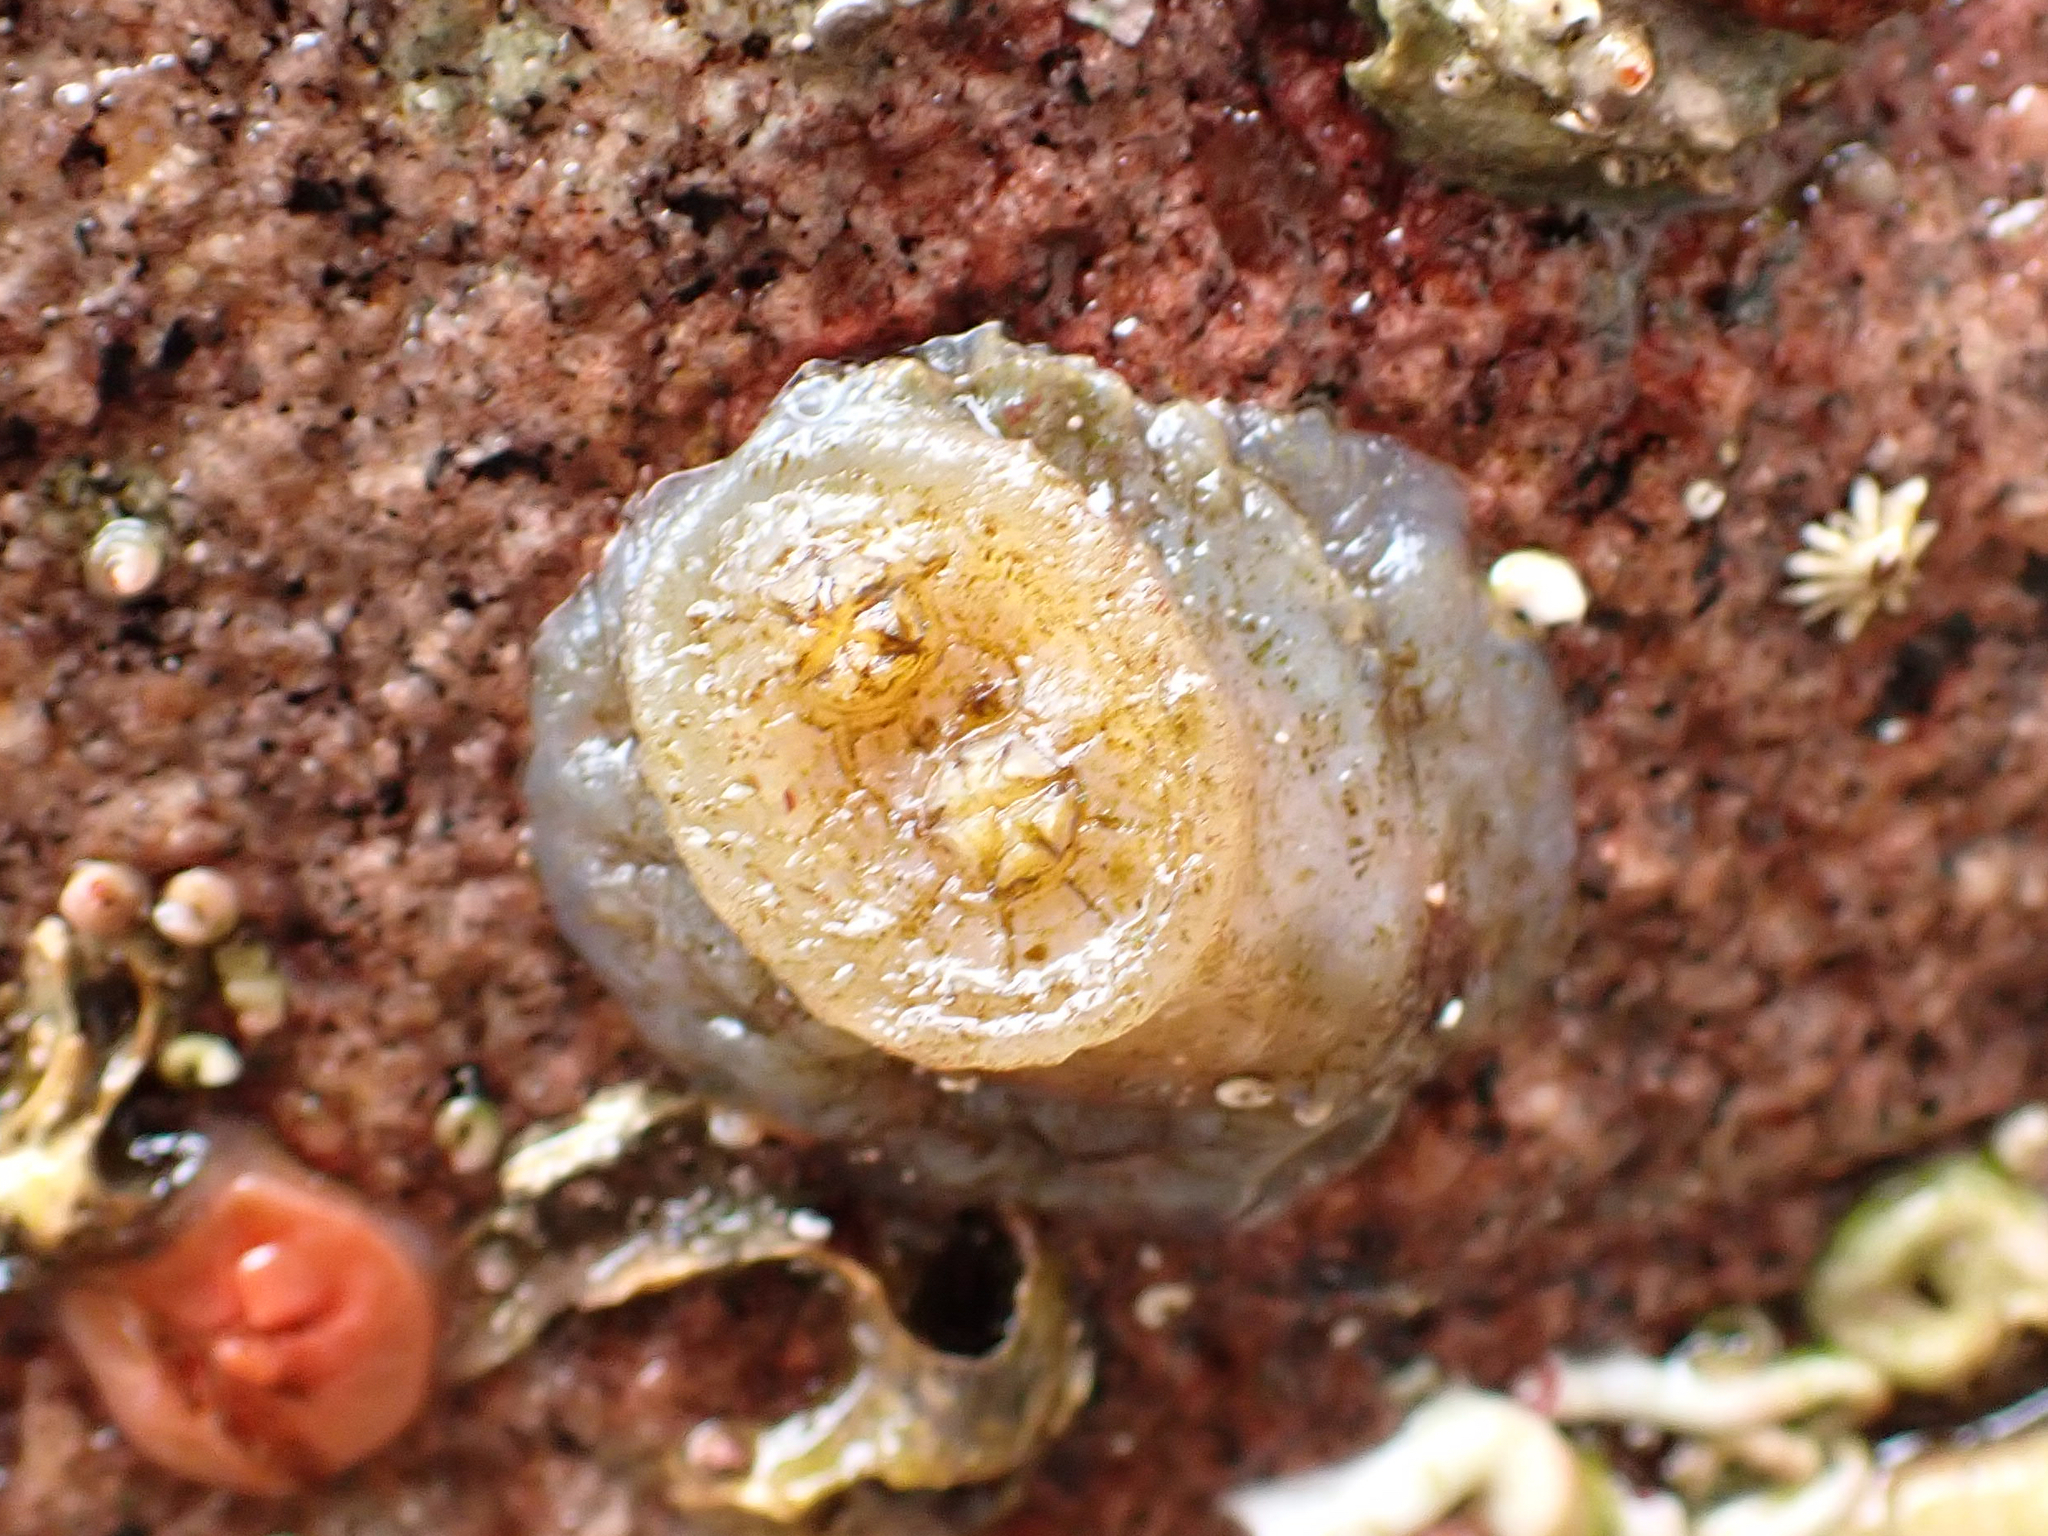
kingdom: Animalia
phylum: Chordata
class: Ascidiacea
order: Phlebobranchia
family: Corellidae
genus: Chelyosoma
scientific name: Chelyosoma productum
